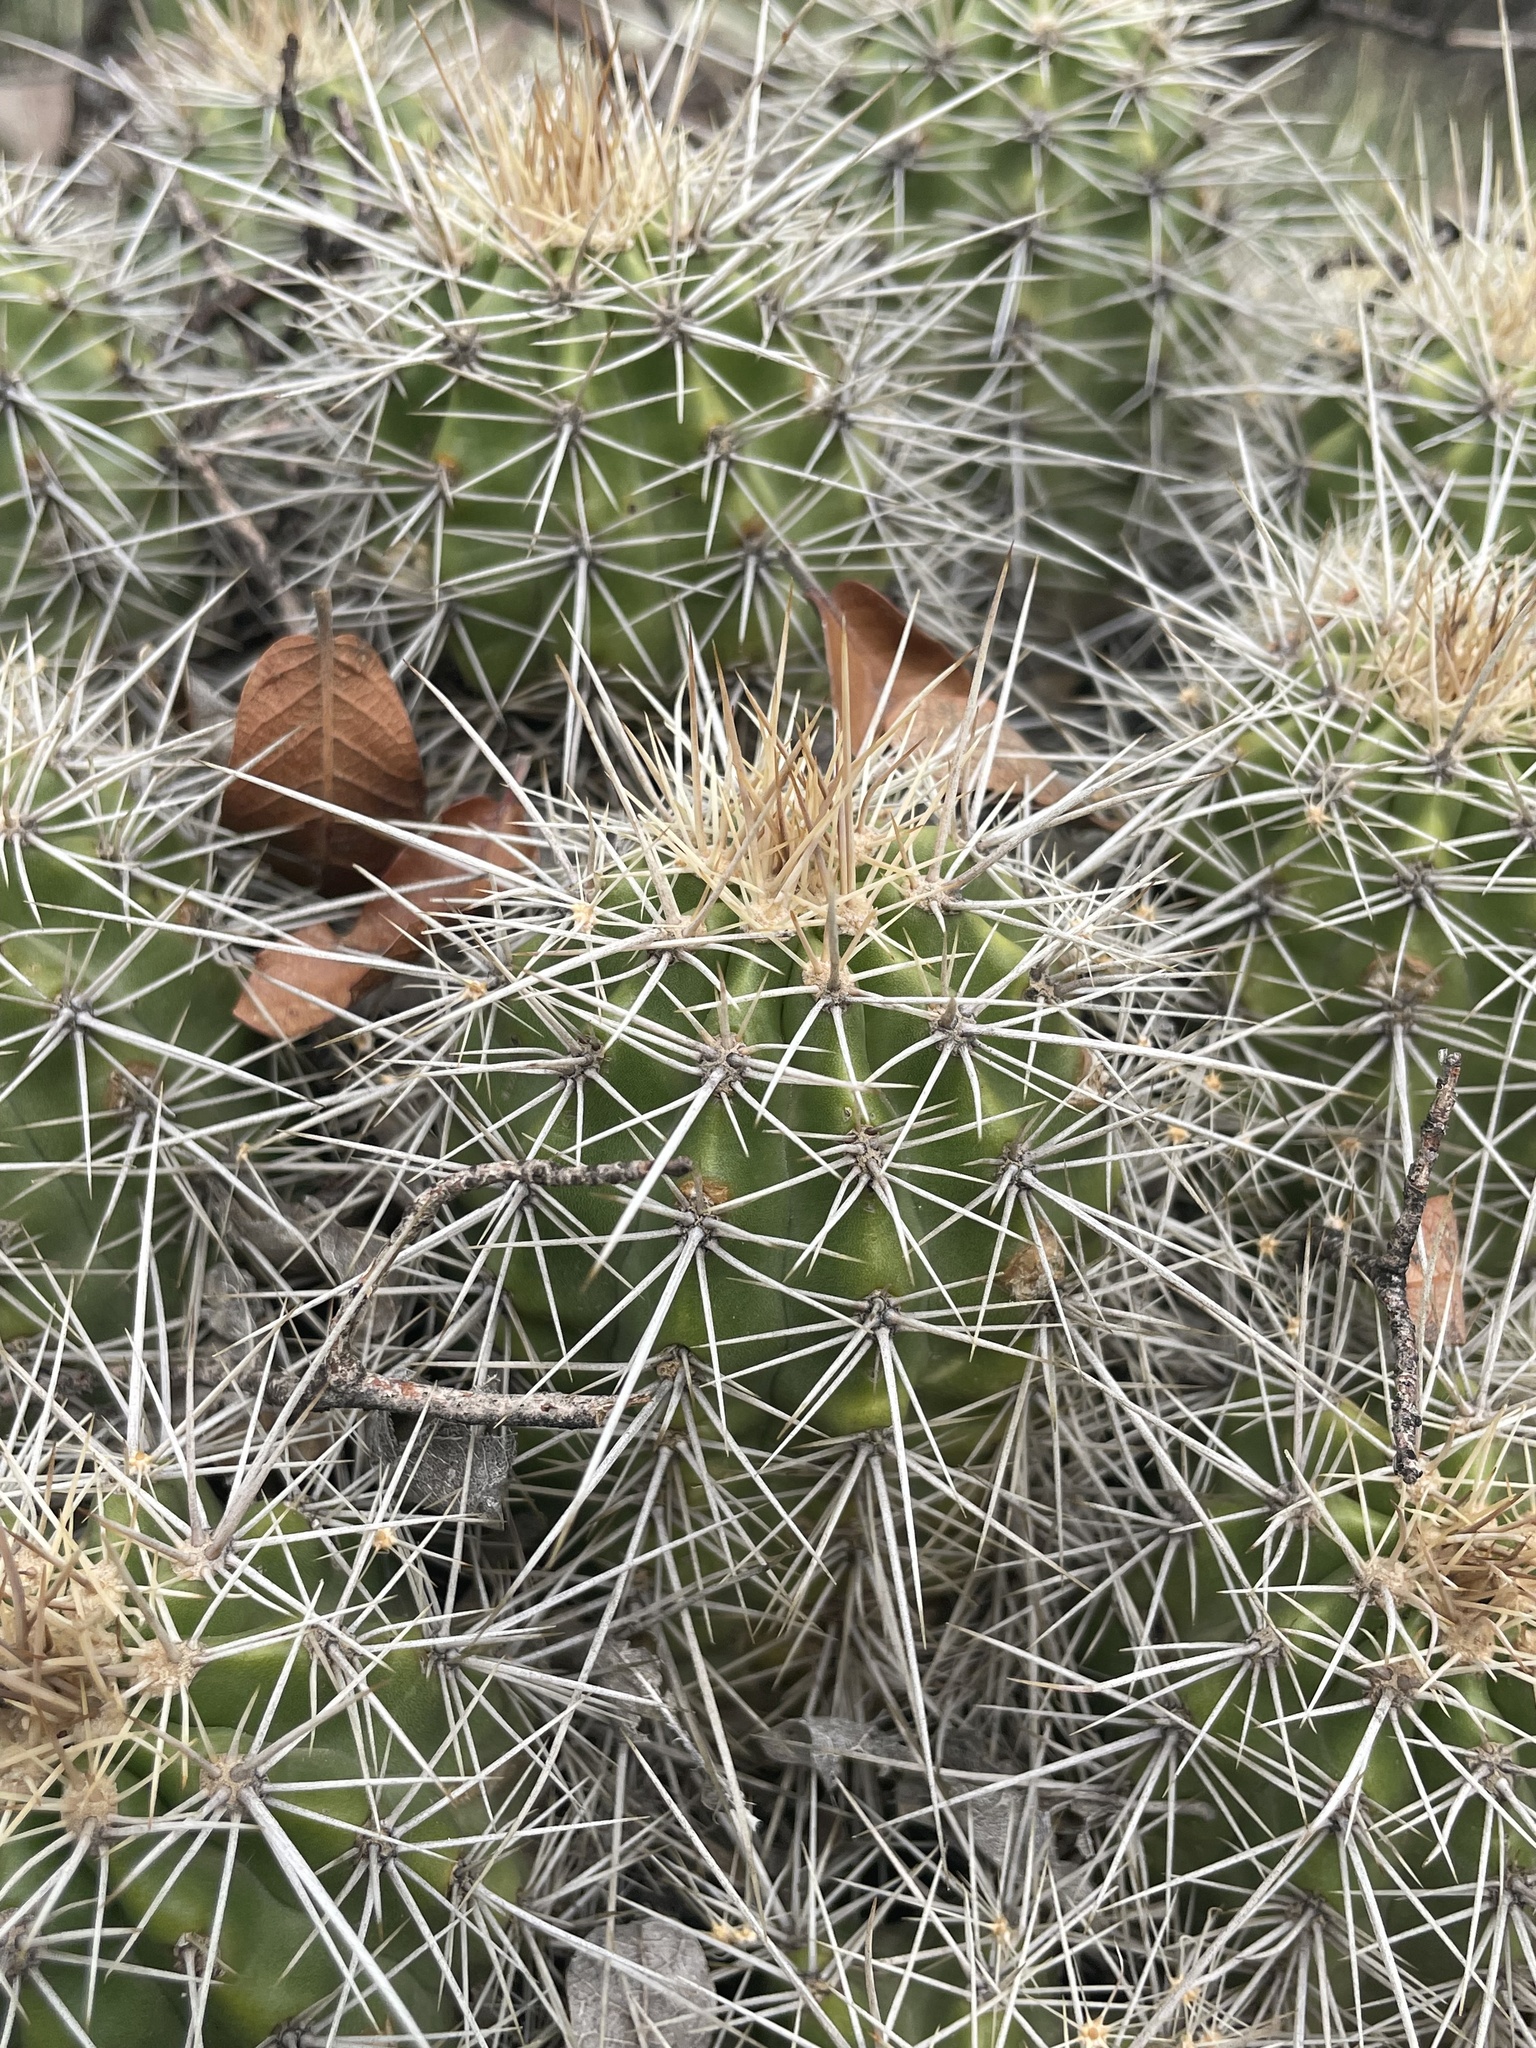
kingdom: Plantae
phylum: Tracheophyta
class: Magnoliopsida
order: Caryophyllales
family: Cactaceae
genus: Echinocereus
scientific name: Echinocereus bakeri
